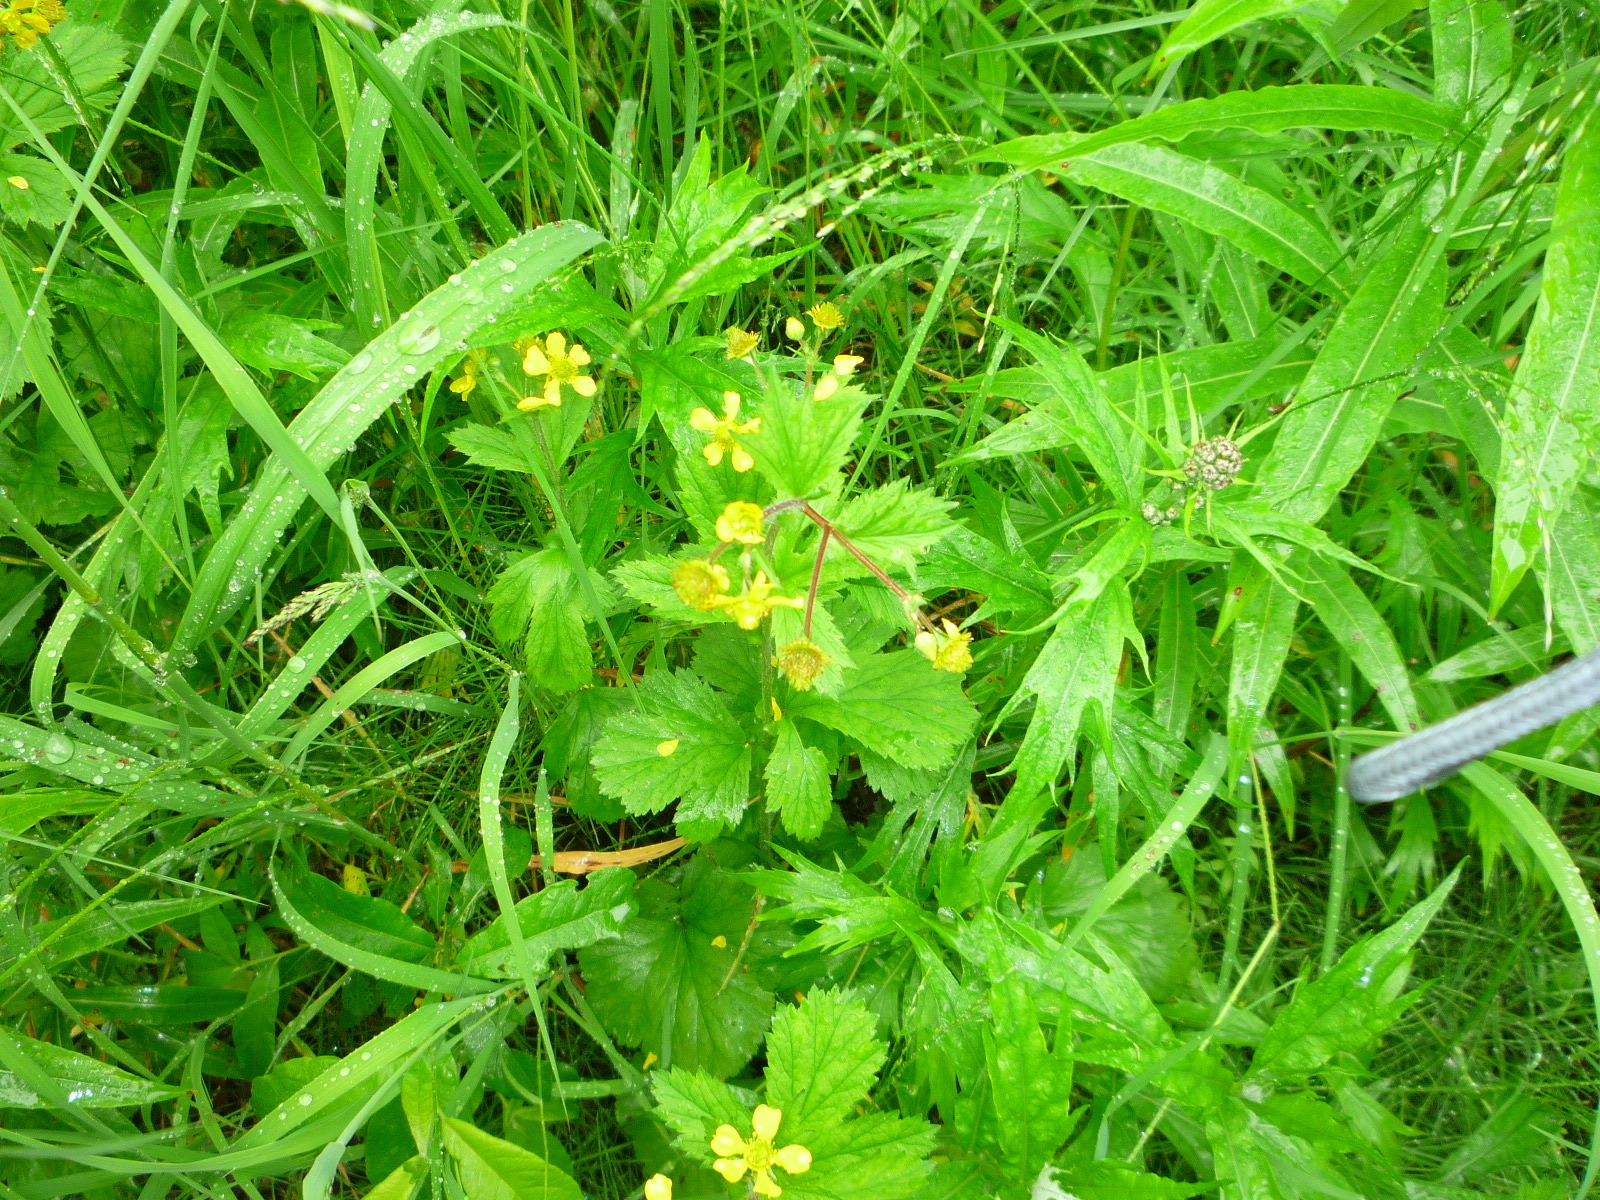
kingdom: Plantae
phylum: Tracheophyta
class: Magnoliopsida
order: Rosales
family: Rosaceae
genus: Geum
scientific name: Geum macrophyllum
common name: Large-leaved avens
